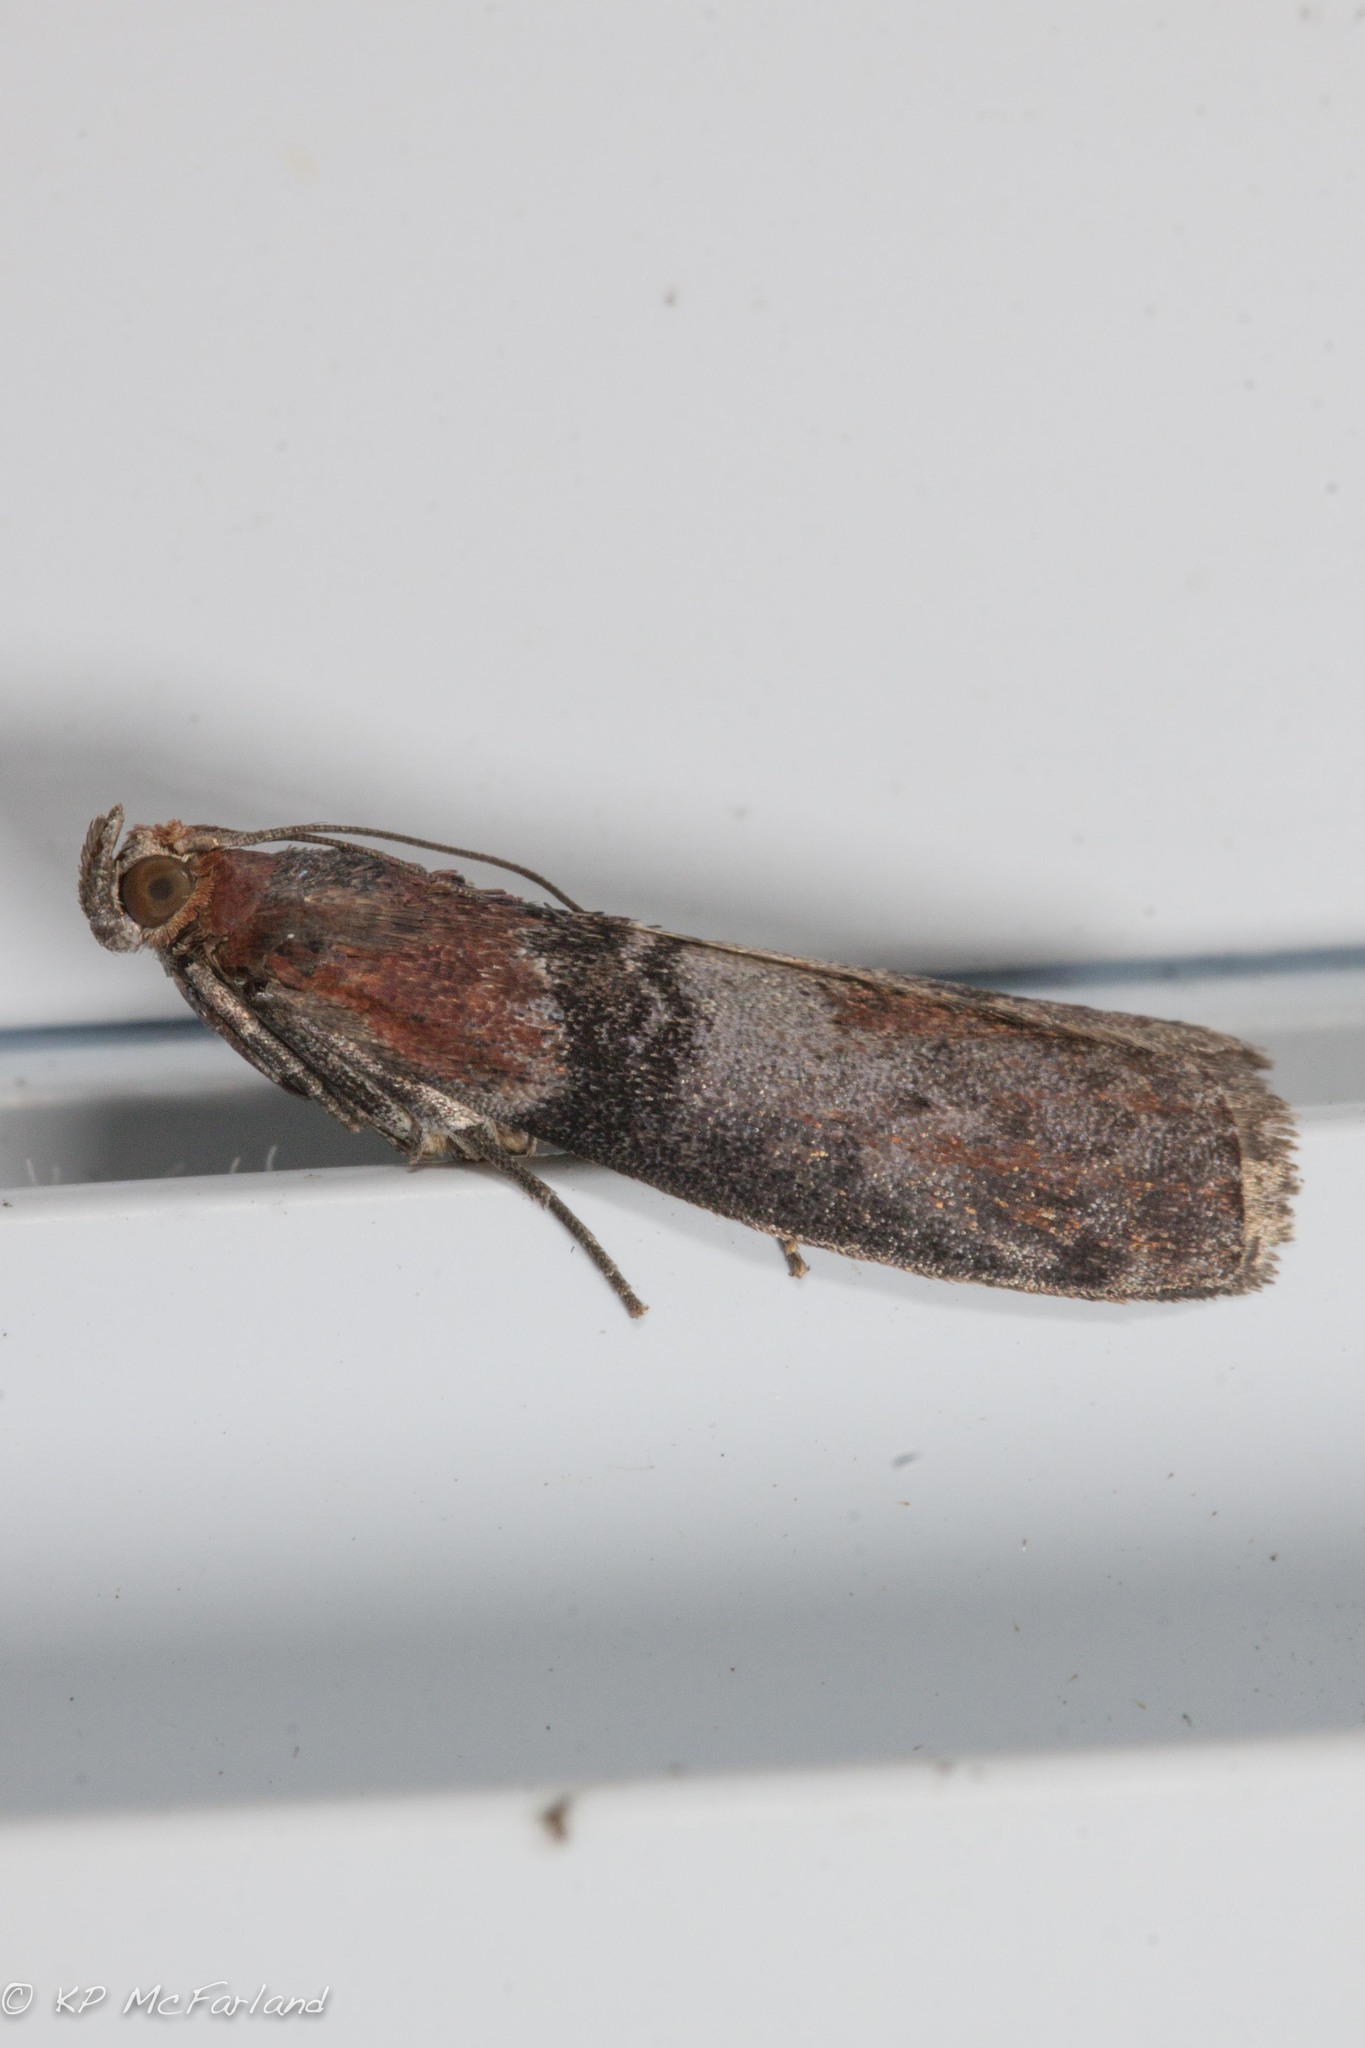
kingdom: Animalia
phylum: Arthropoda
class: Insecta
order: Lepidoptera
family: Pyralidae
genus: Sciota
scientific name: Sciota vetustella
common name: Belted leafroller moth
